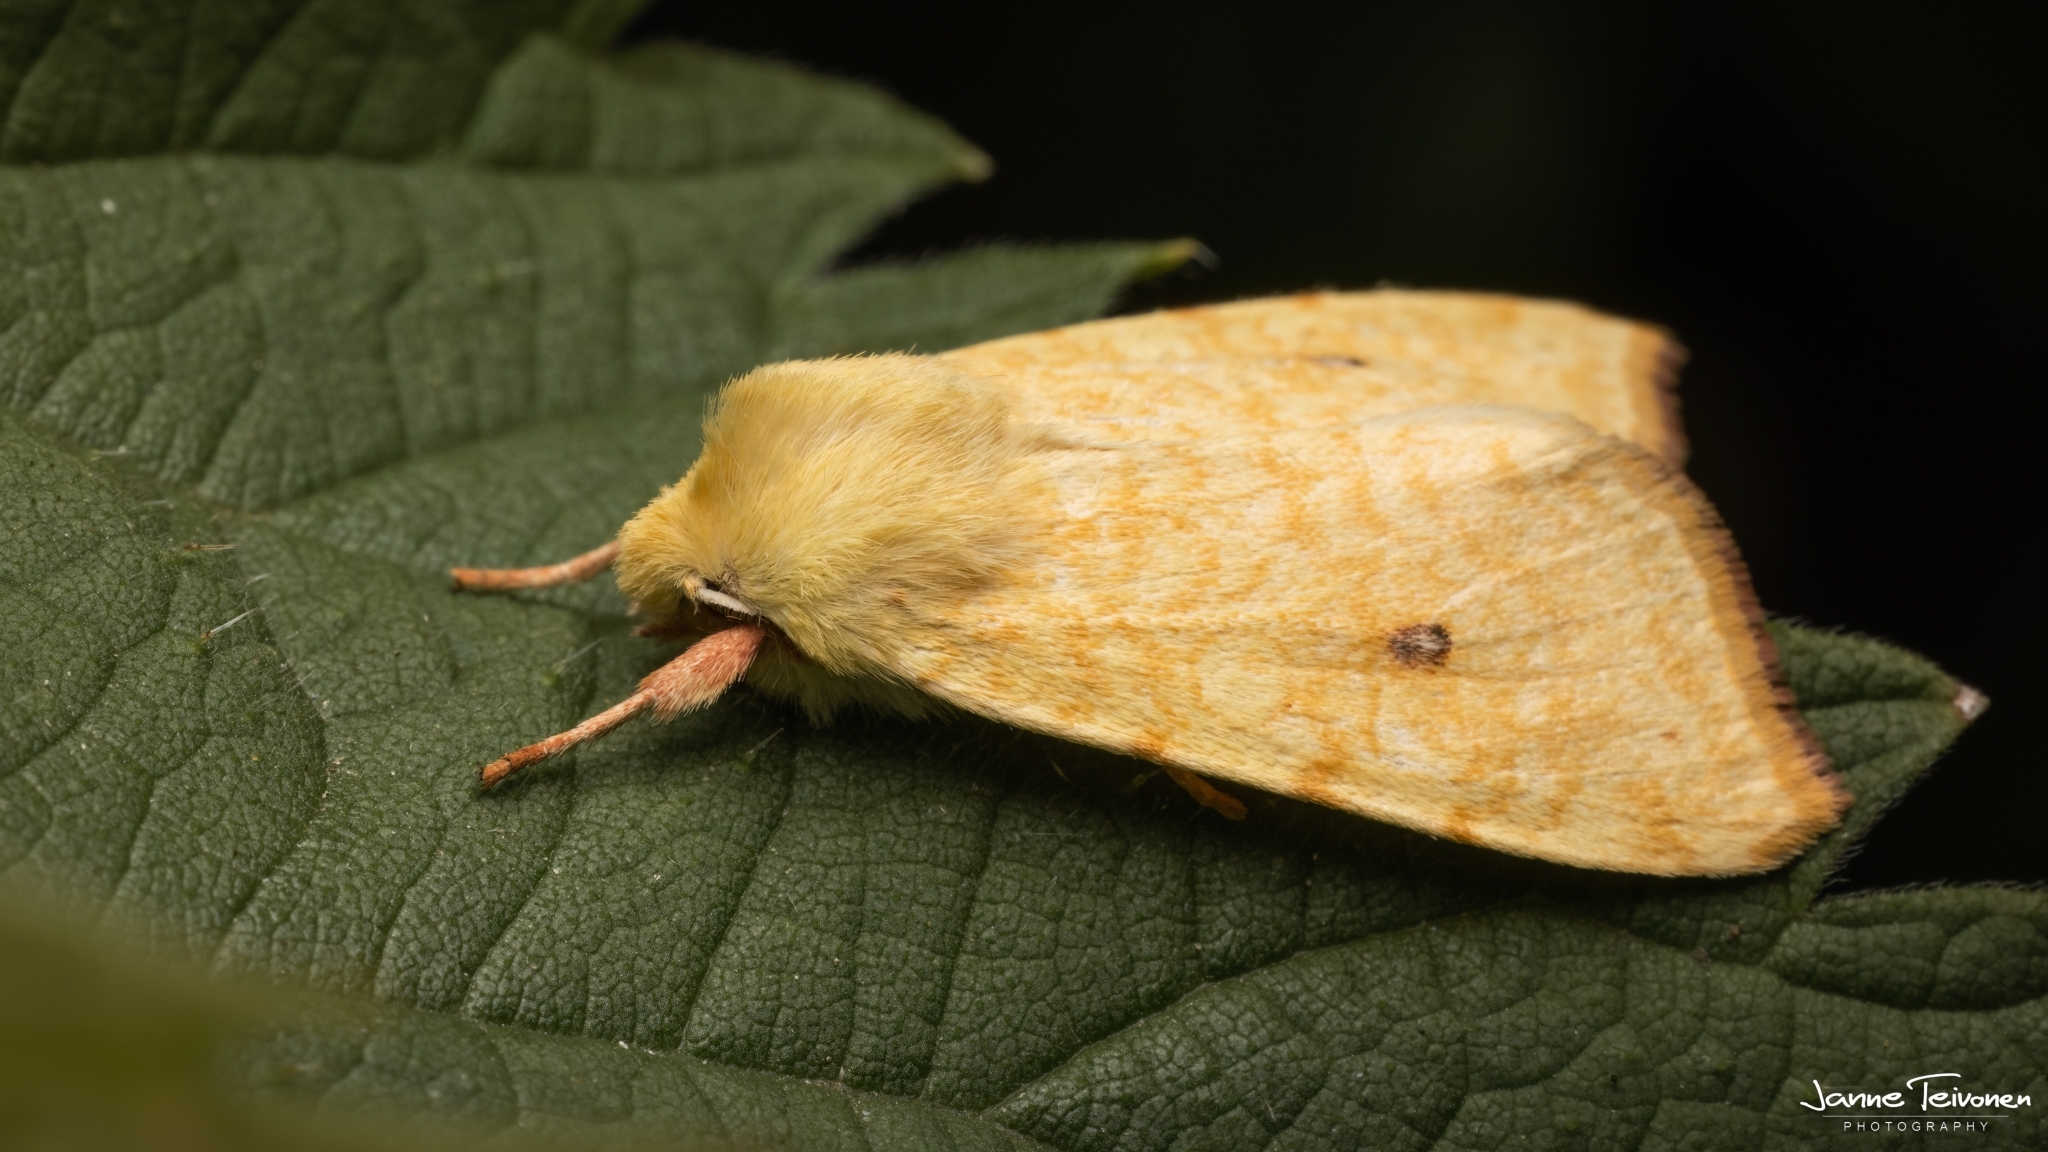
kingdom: Animalia
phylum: Arthropoda
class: Insecta
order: Lepidoptera
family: Noctuidae
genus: Xanthia
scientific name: Xanthia icteritia
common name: The sallow
